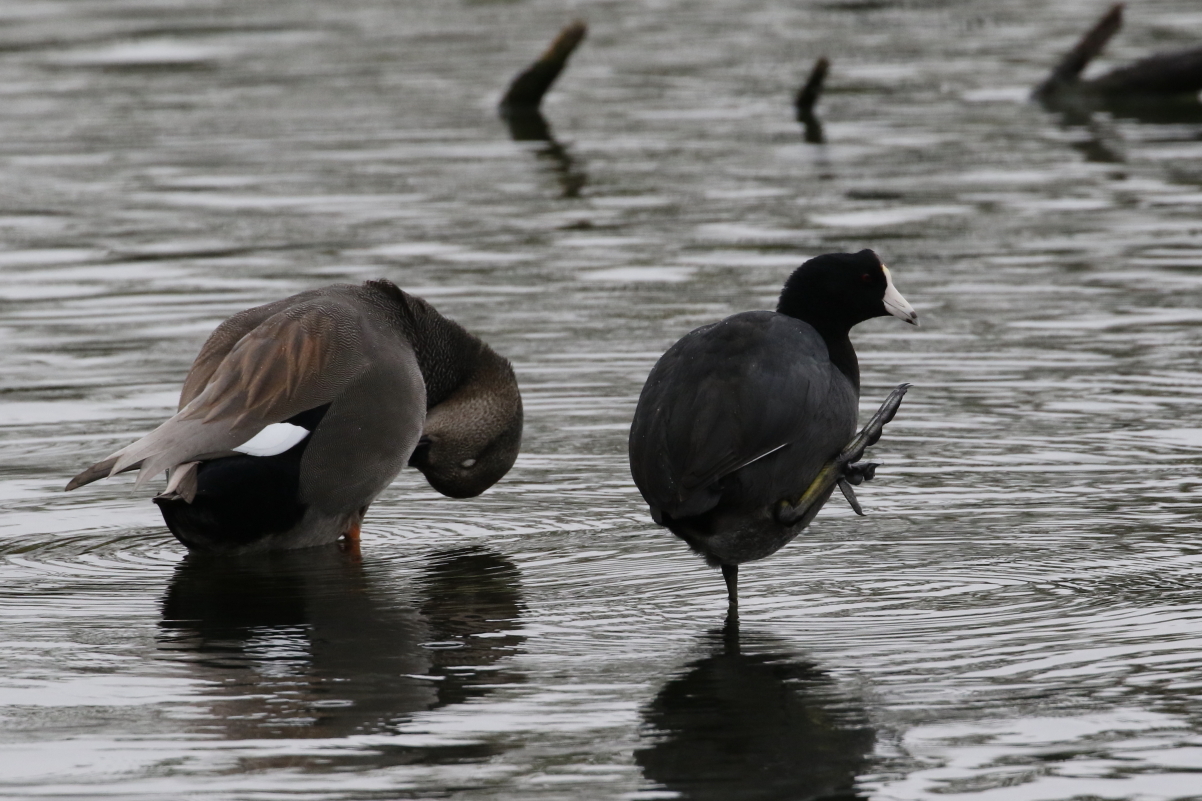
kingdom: Animalia
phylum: Chordata
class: Aves
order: Gruiformes
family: Rallidae
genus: Fulica
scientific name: Fulica americana
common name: American coot
